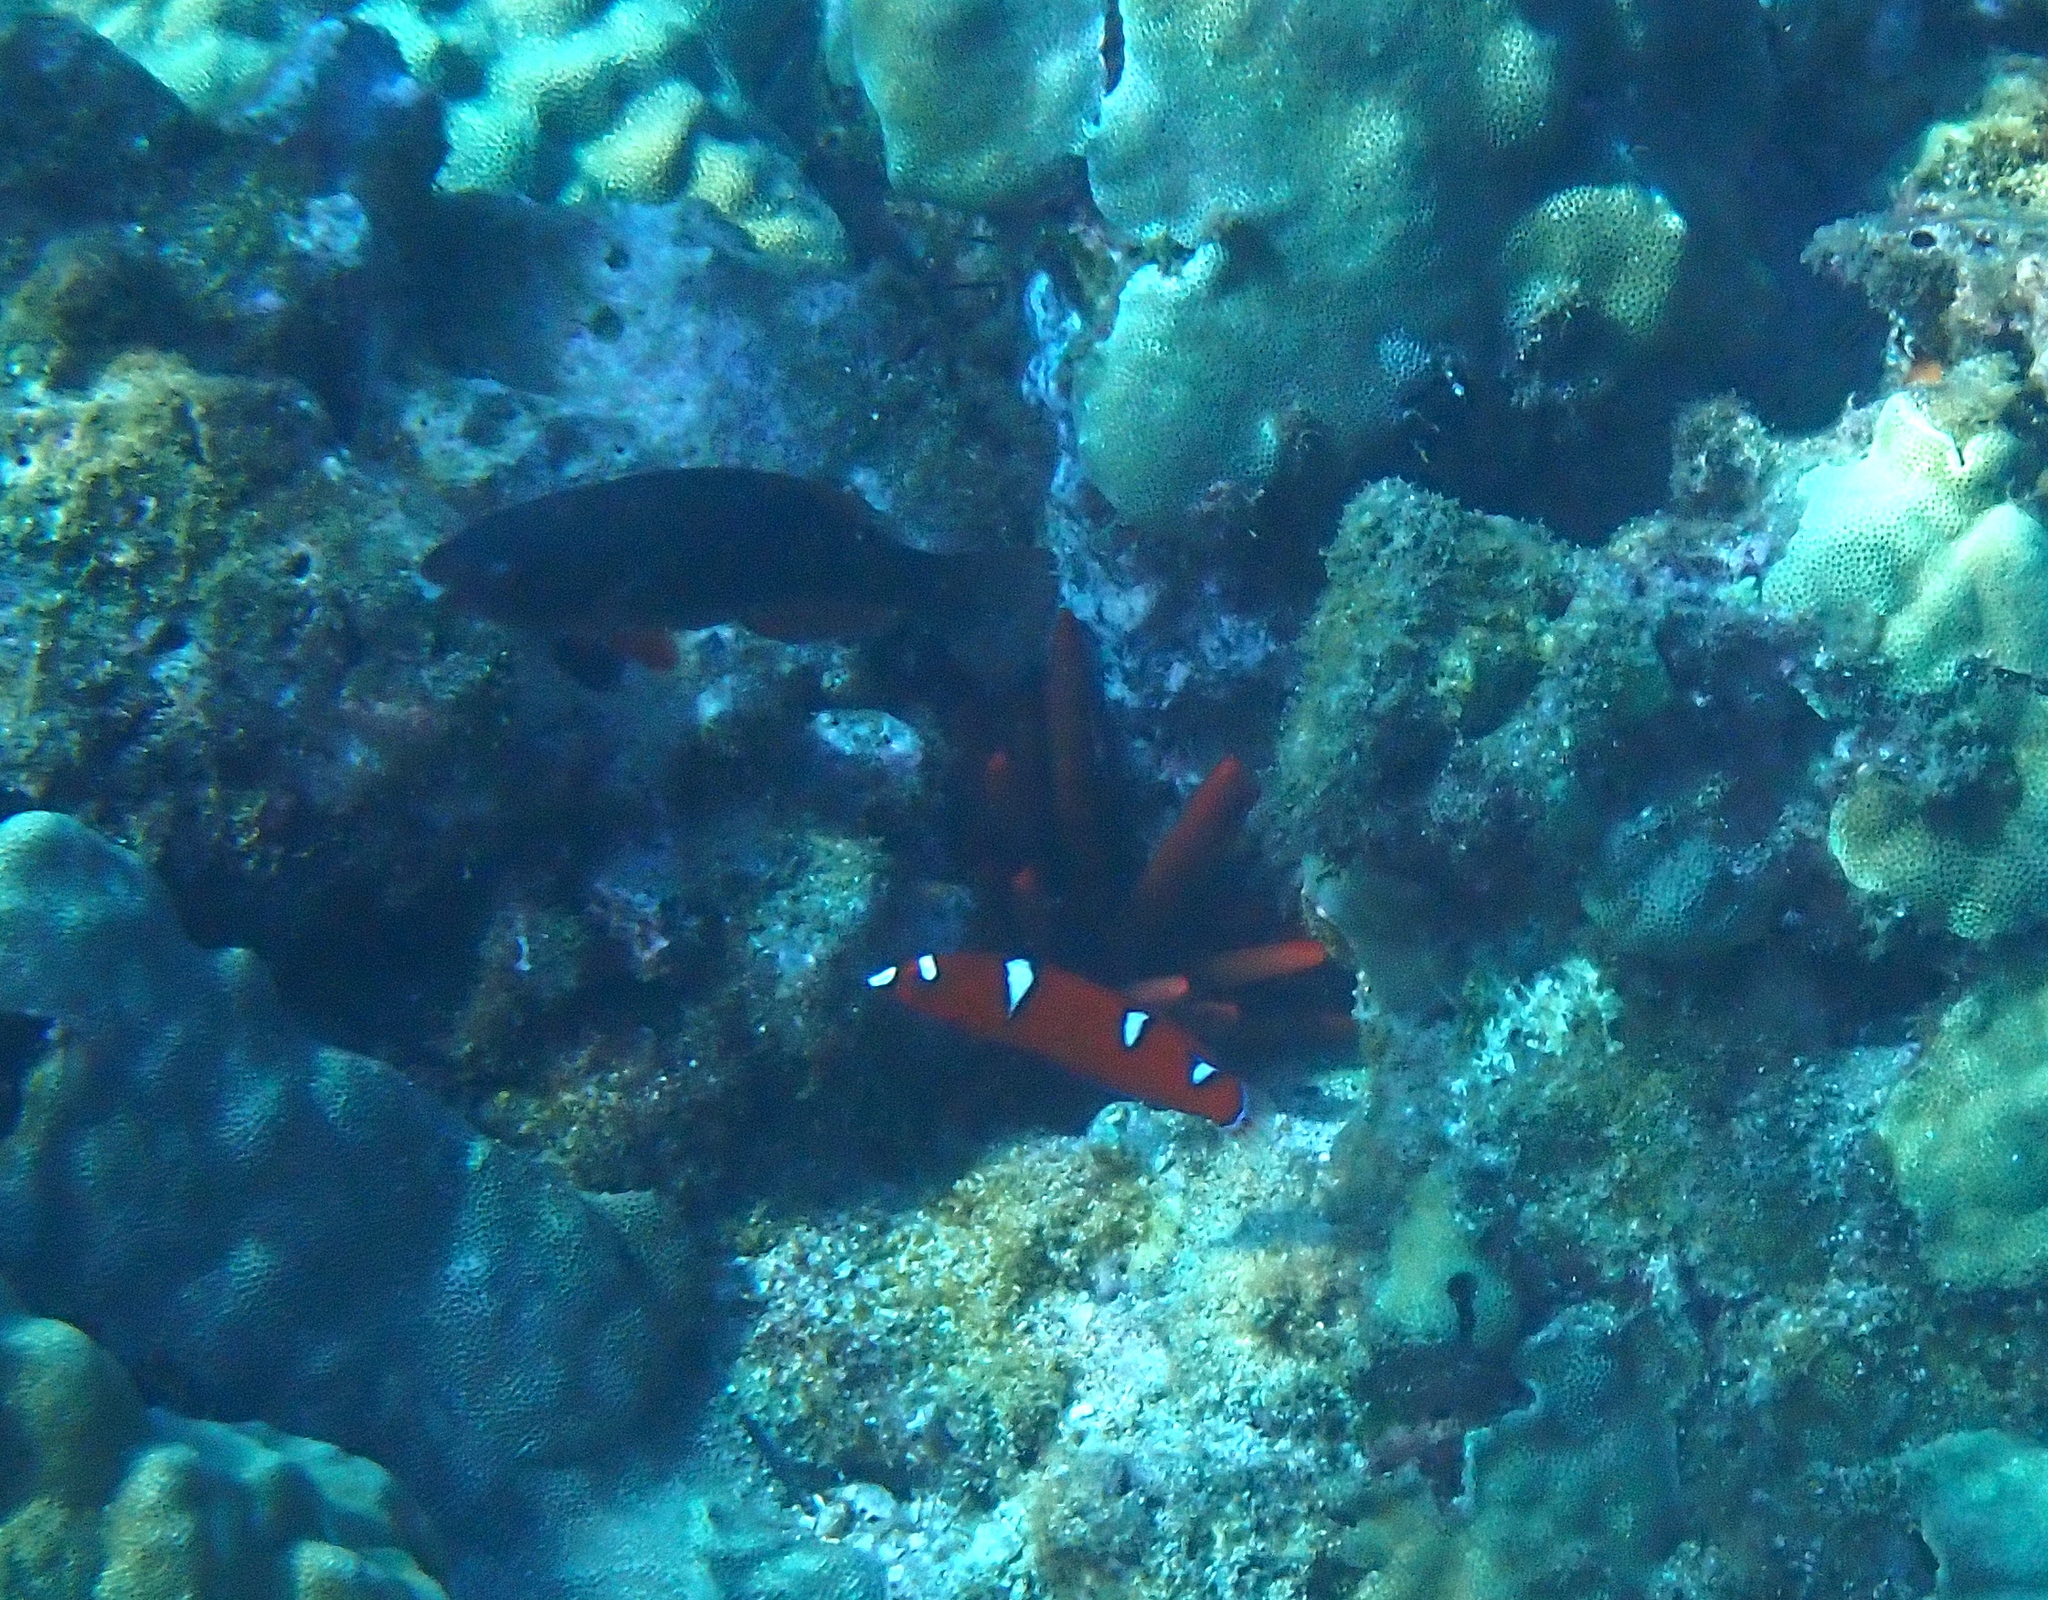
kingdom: Animalia
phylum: Chordata
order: Perciformes
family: Labridae
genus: Coris
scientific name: Coris gaimard
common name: Yellowtail coris
